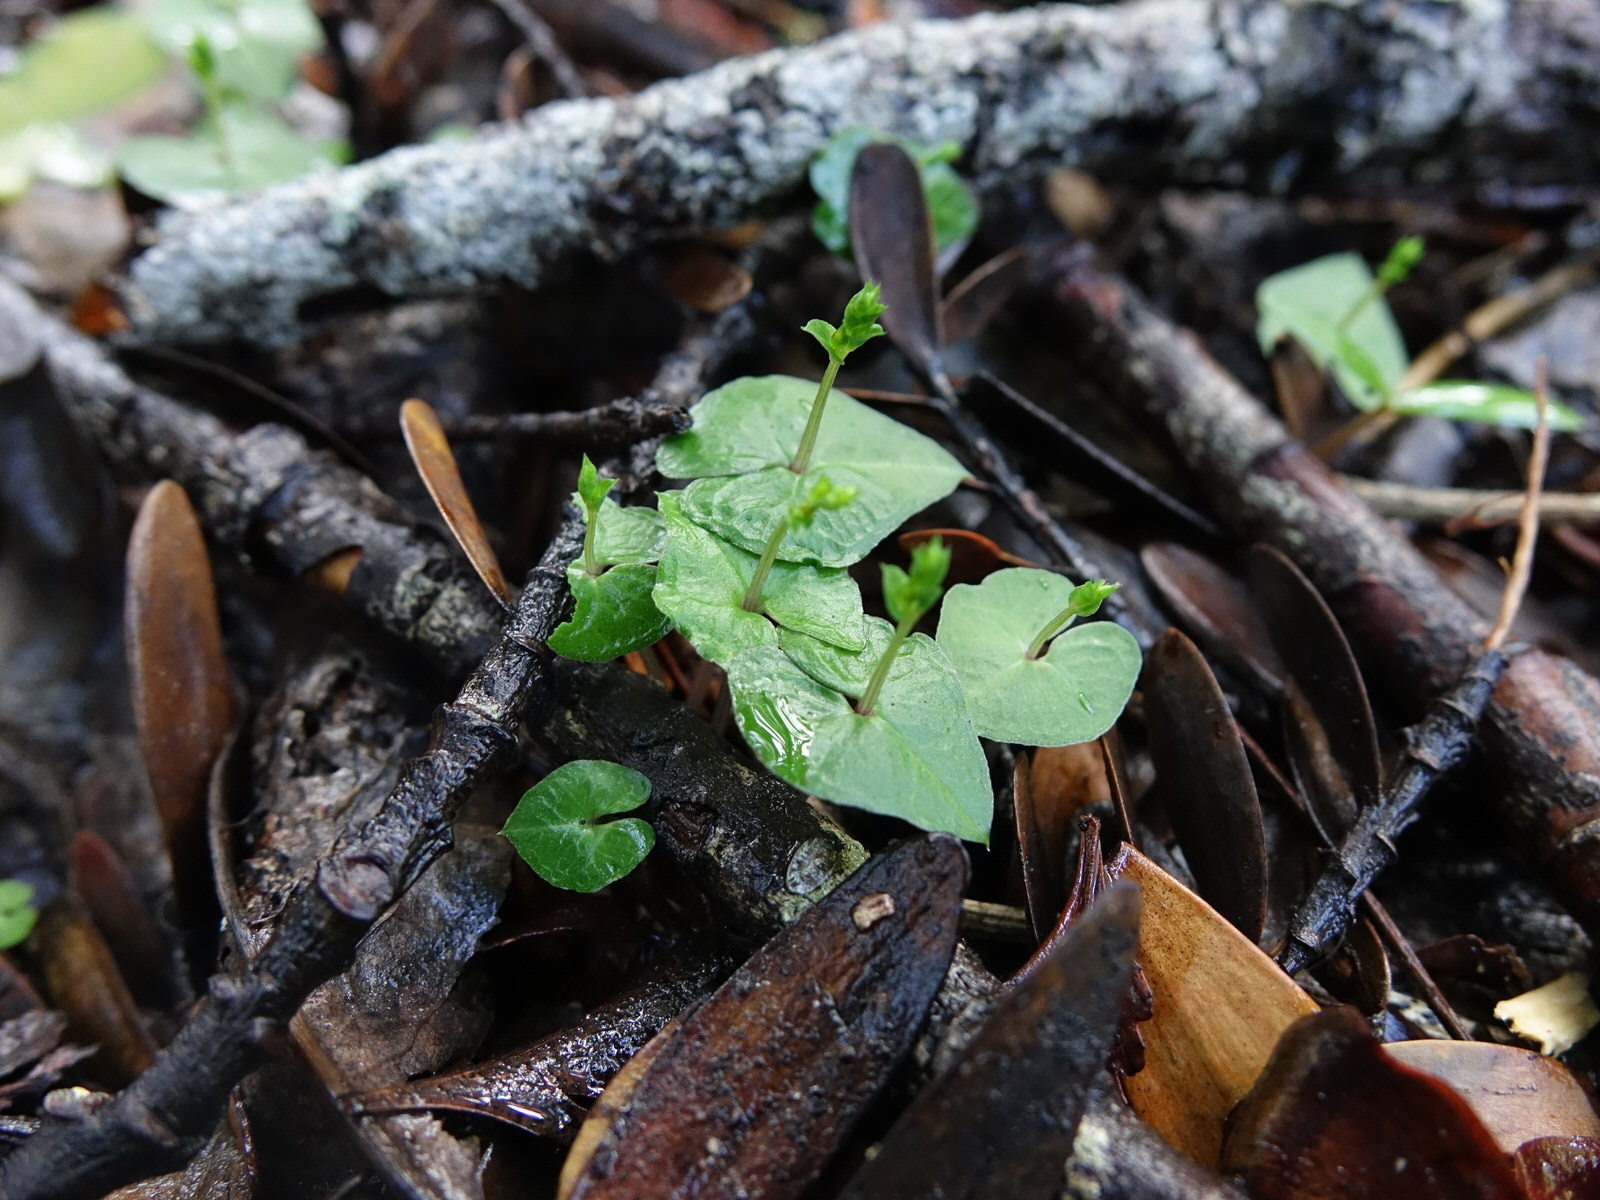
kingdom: Plantae
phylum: Tracheophyta
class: Liliopsida
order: Asparagales
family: Orchidaceae
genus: Acianthus
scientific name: Acianthus sinclairii
